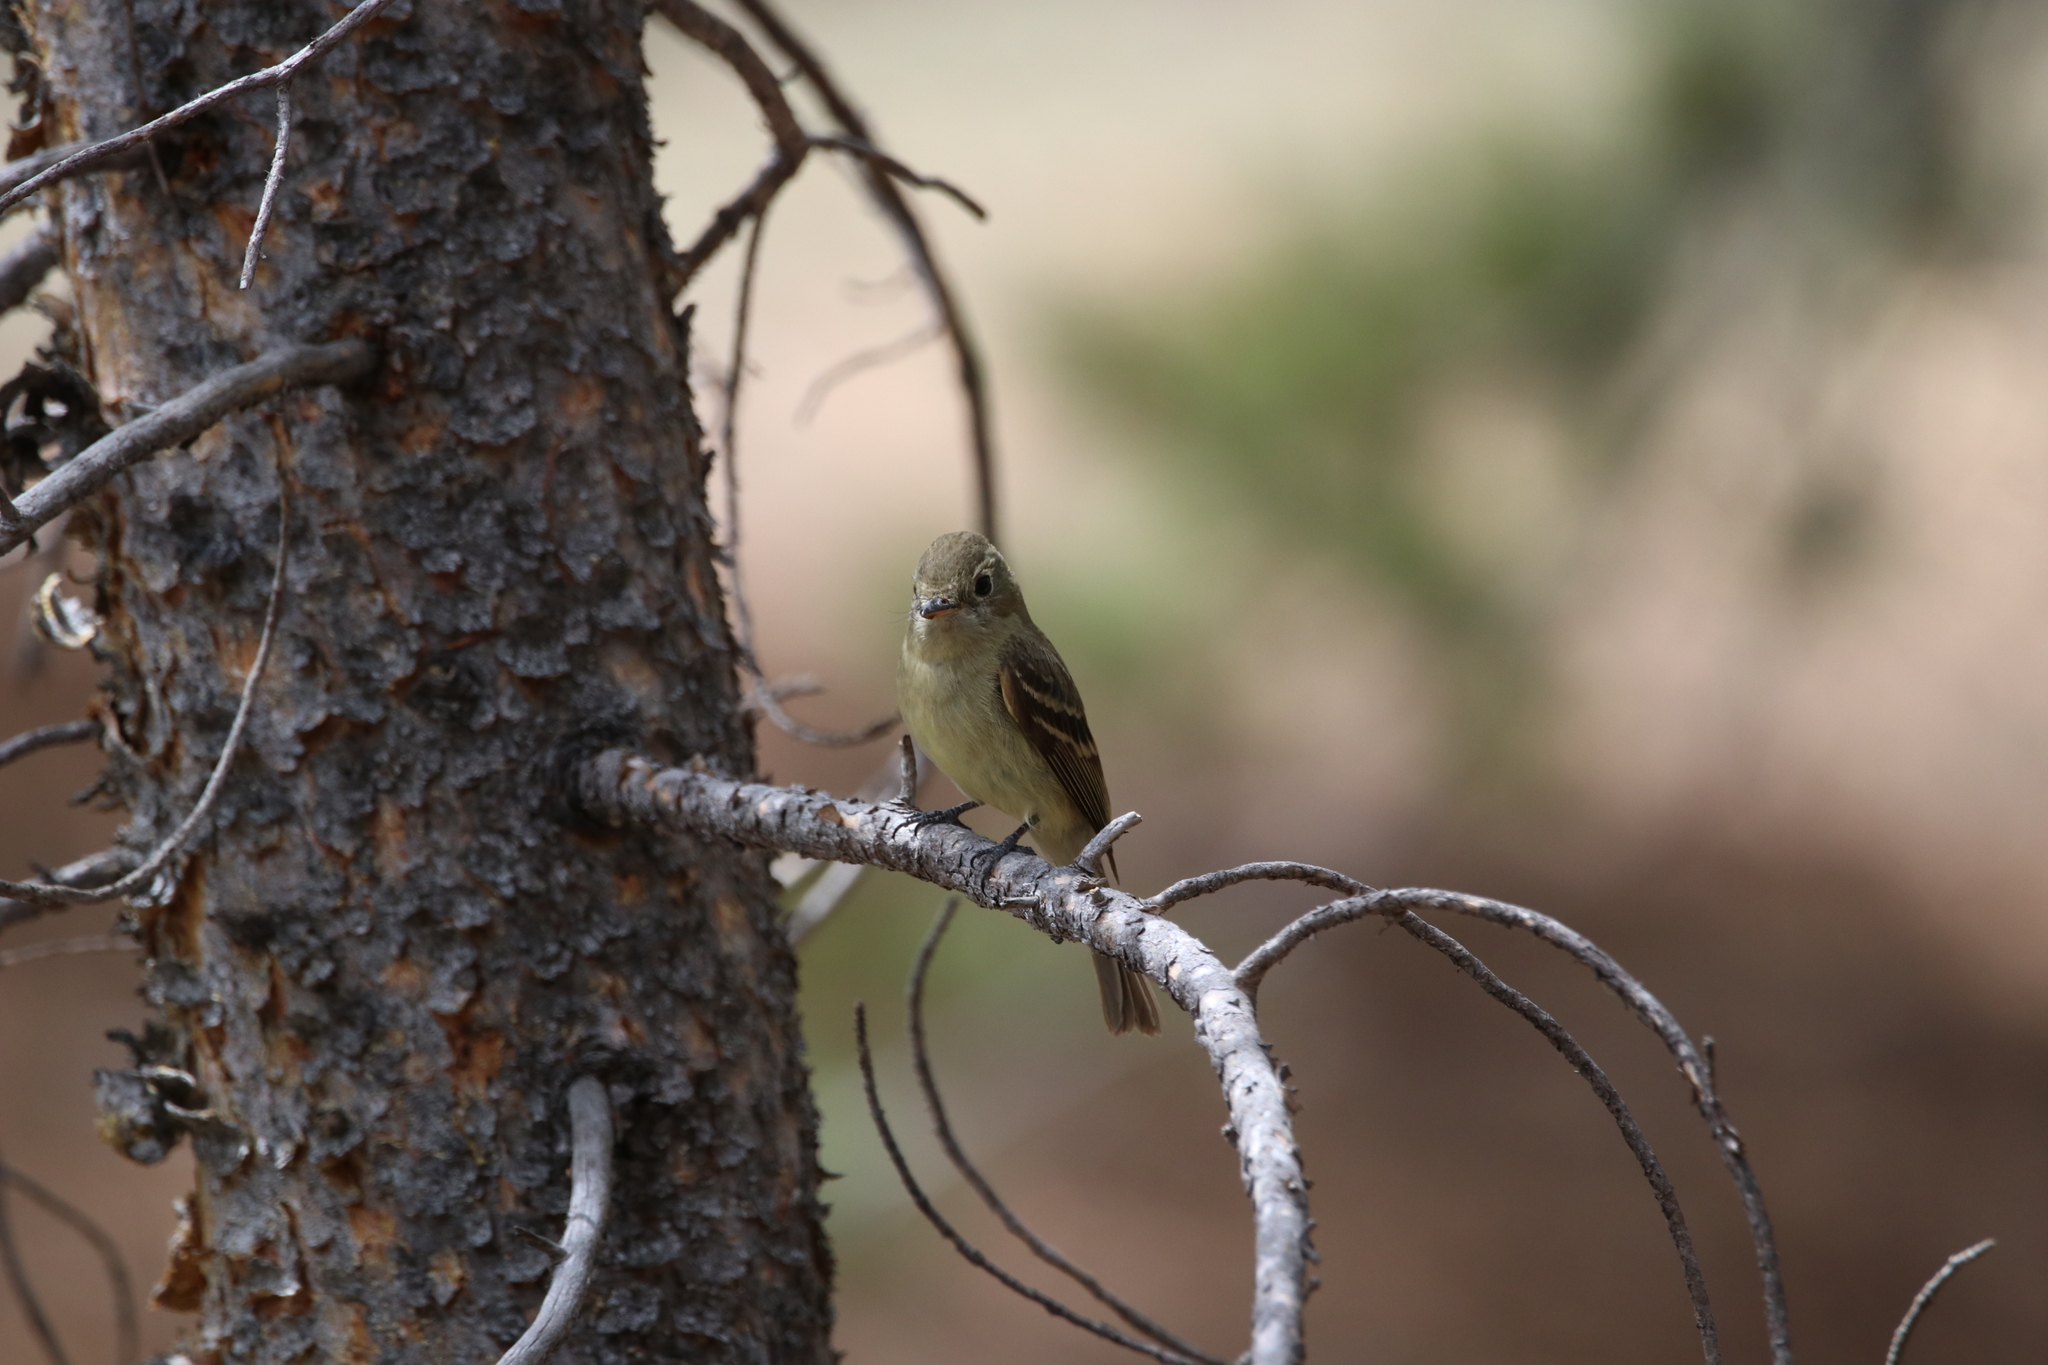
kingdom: Animalia
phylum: Chordata
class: Aves
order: Passeriformes
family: Tyrannidae
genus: Empidonax
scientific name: Empidonax difficilis
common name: Pacific-slope flycatcher
